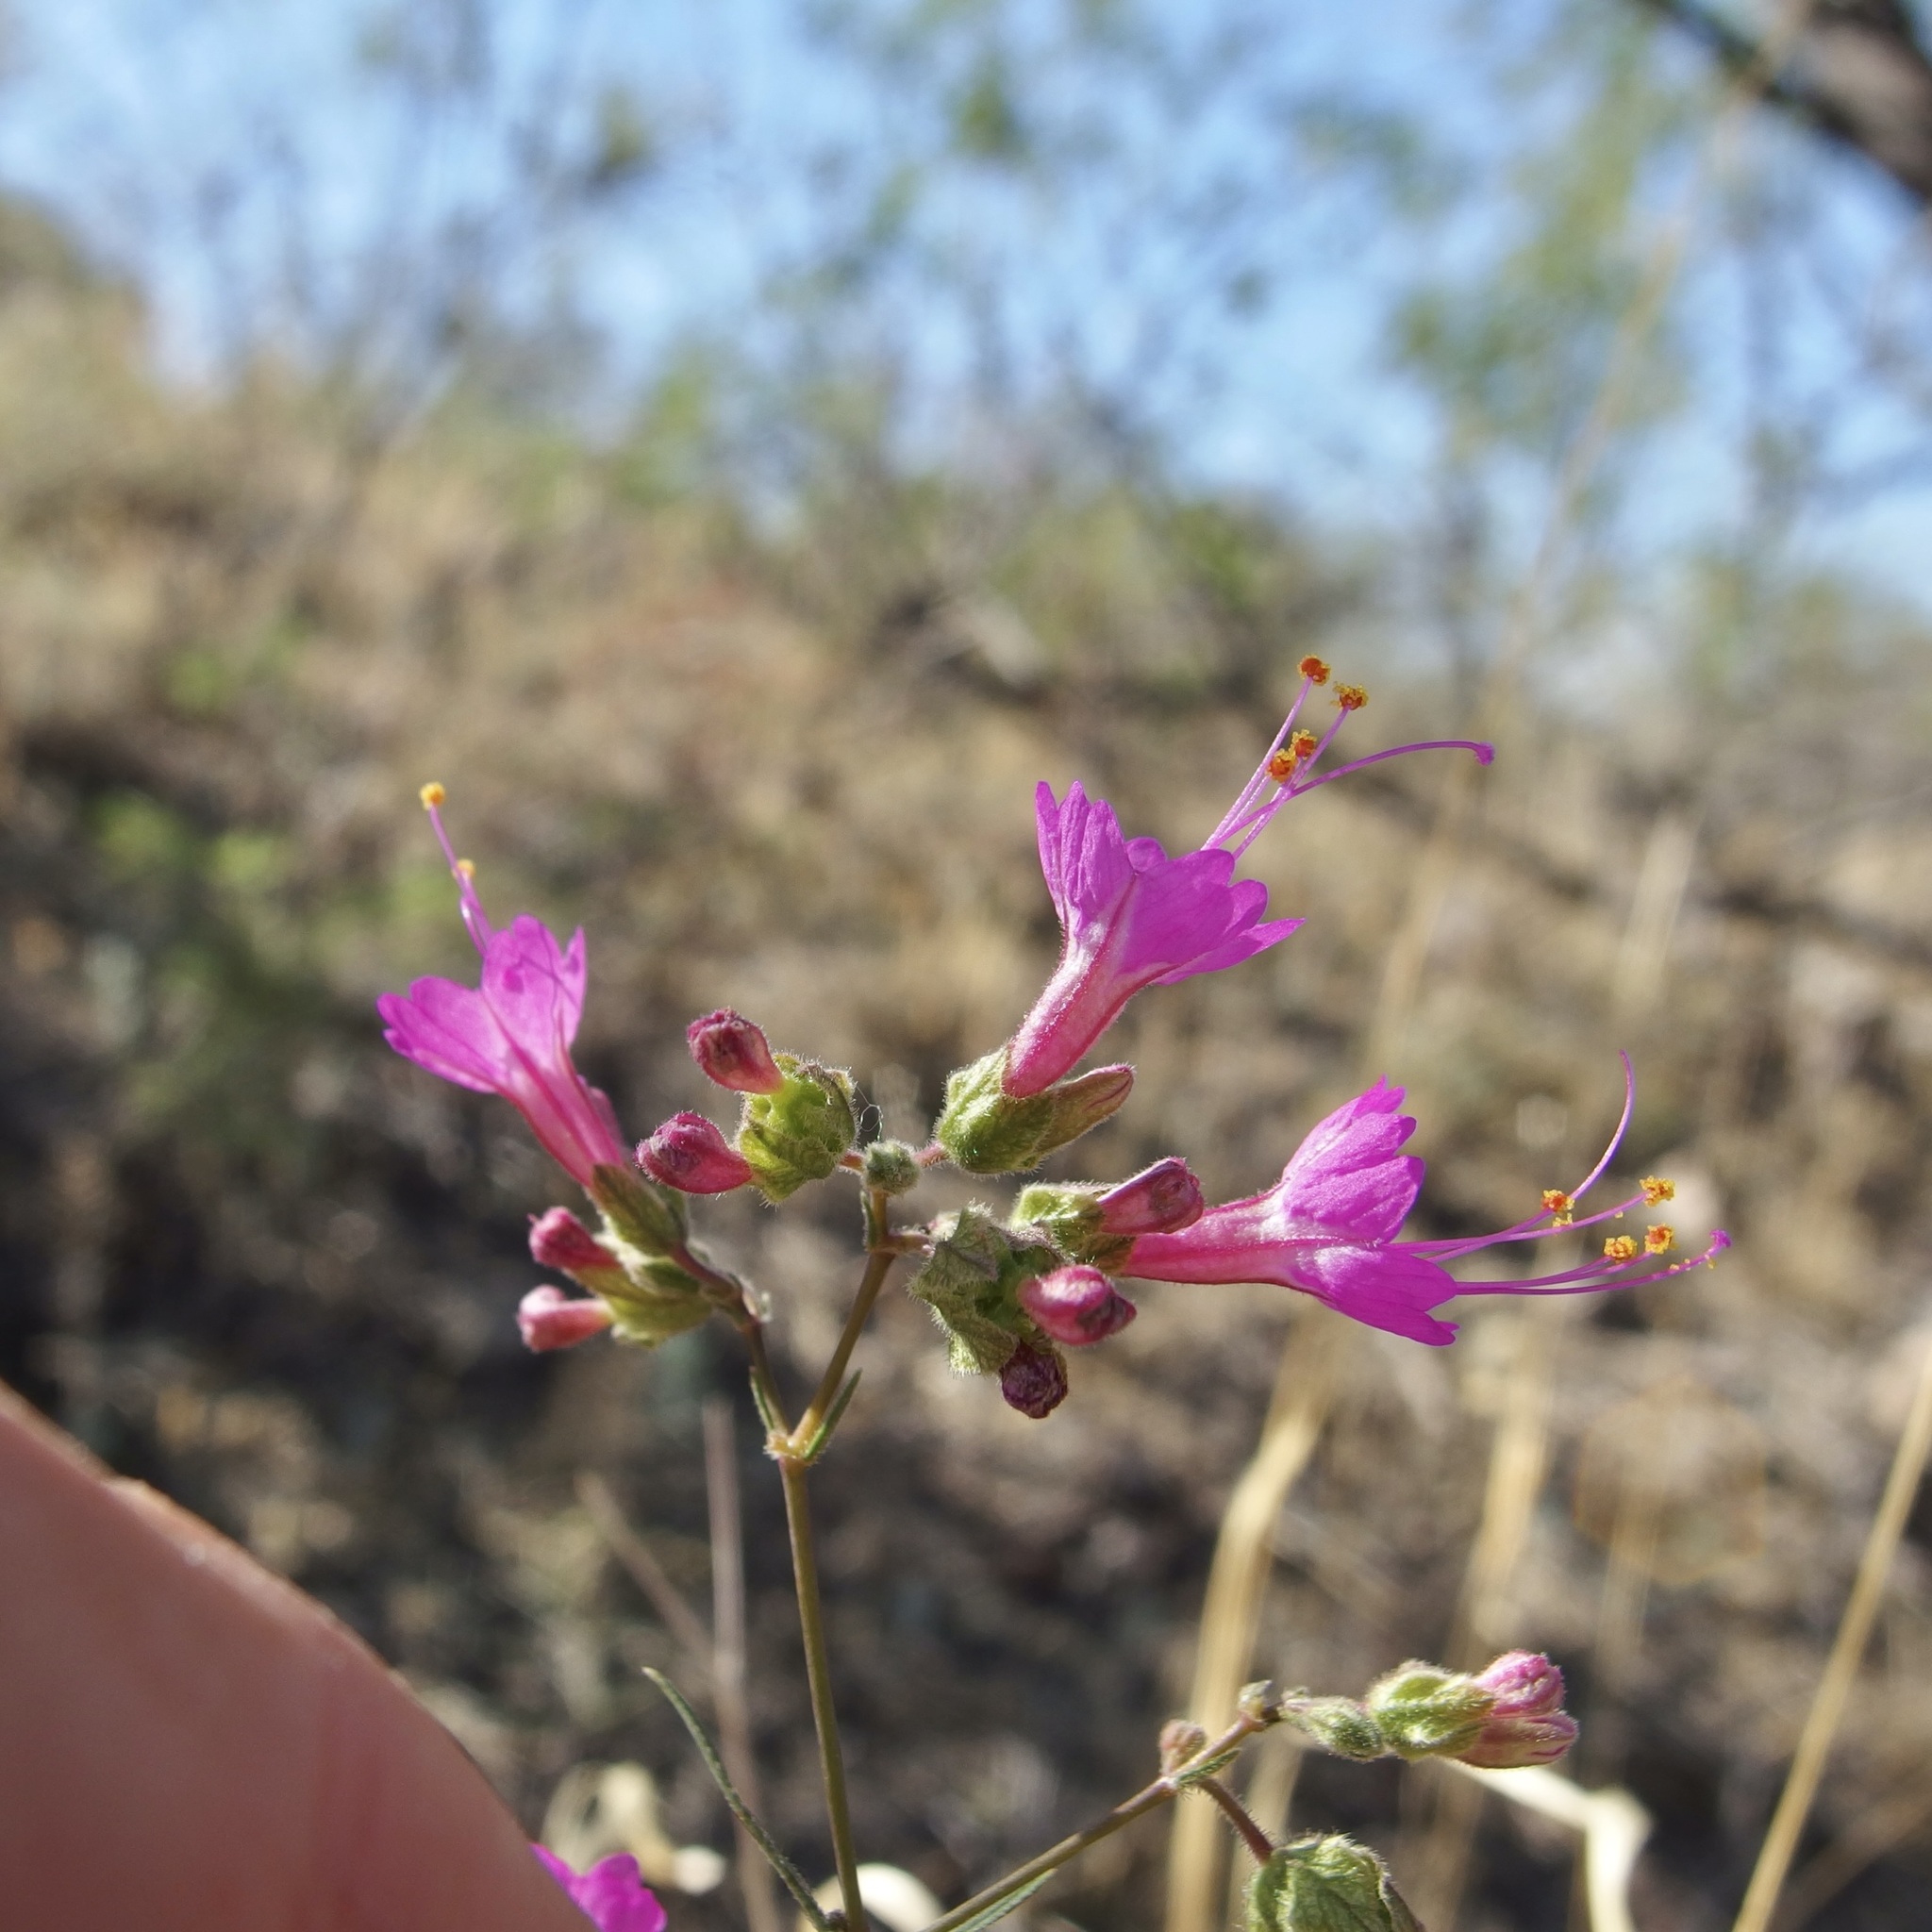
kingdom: Plantae
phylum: Tracheophyta
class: Magnoliopsida
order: Caryophyllales
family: Nyctaginaceae
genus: Mirabilis
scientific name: Mirabilis linearis
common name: Linear-leaved four-o'clock
